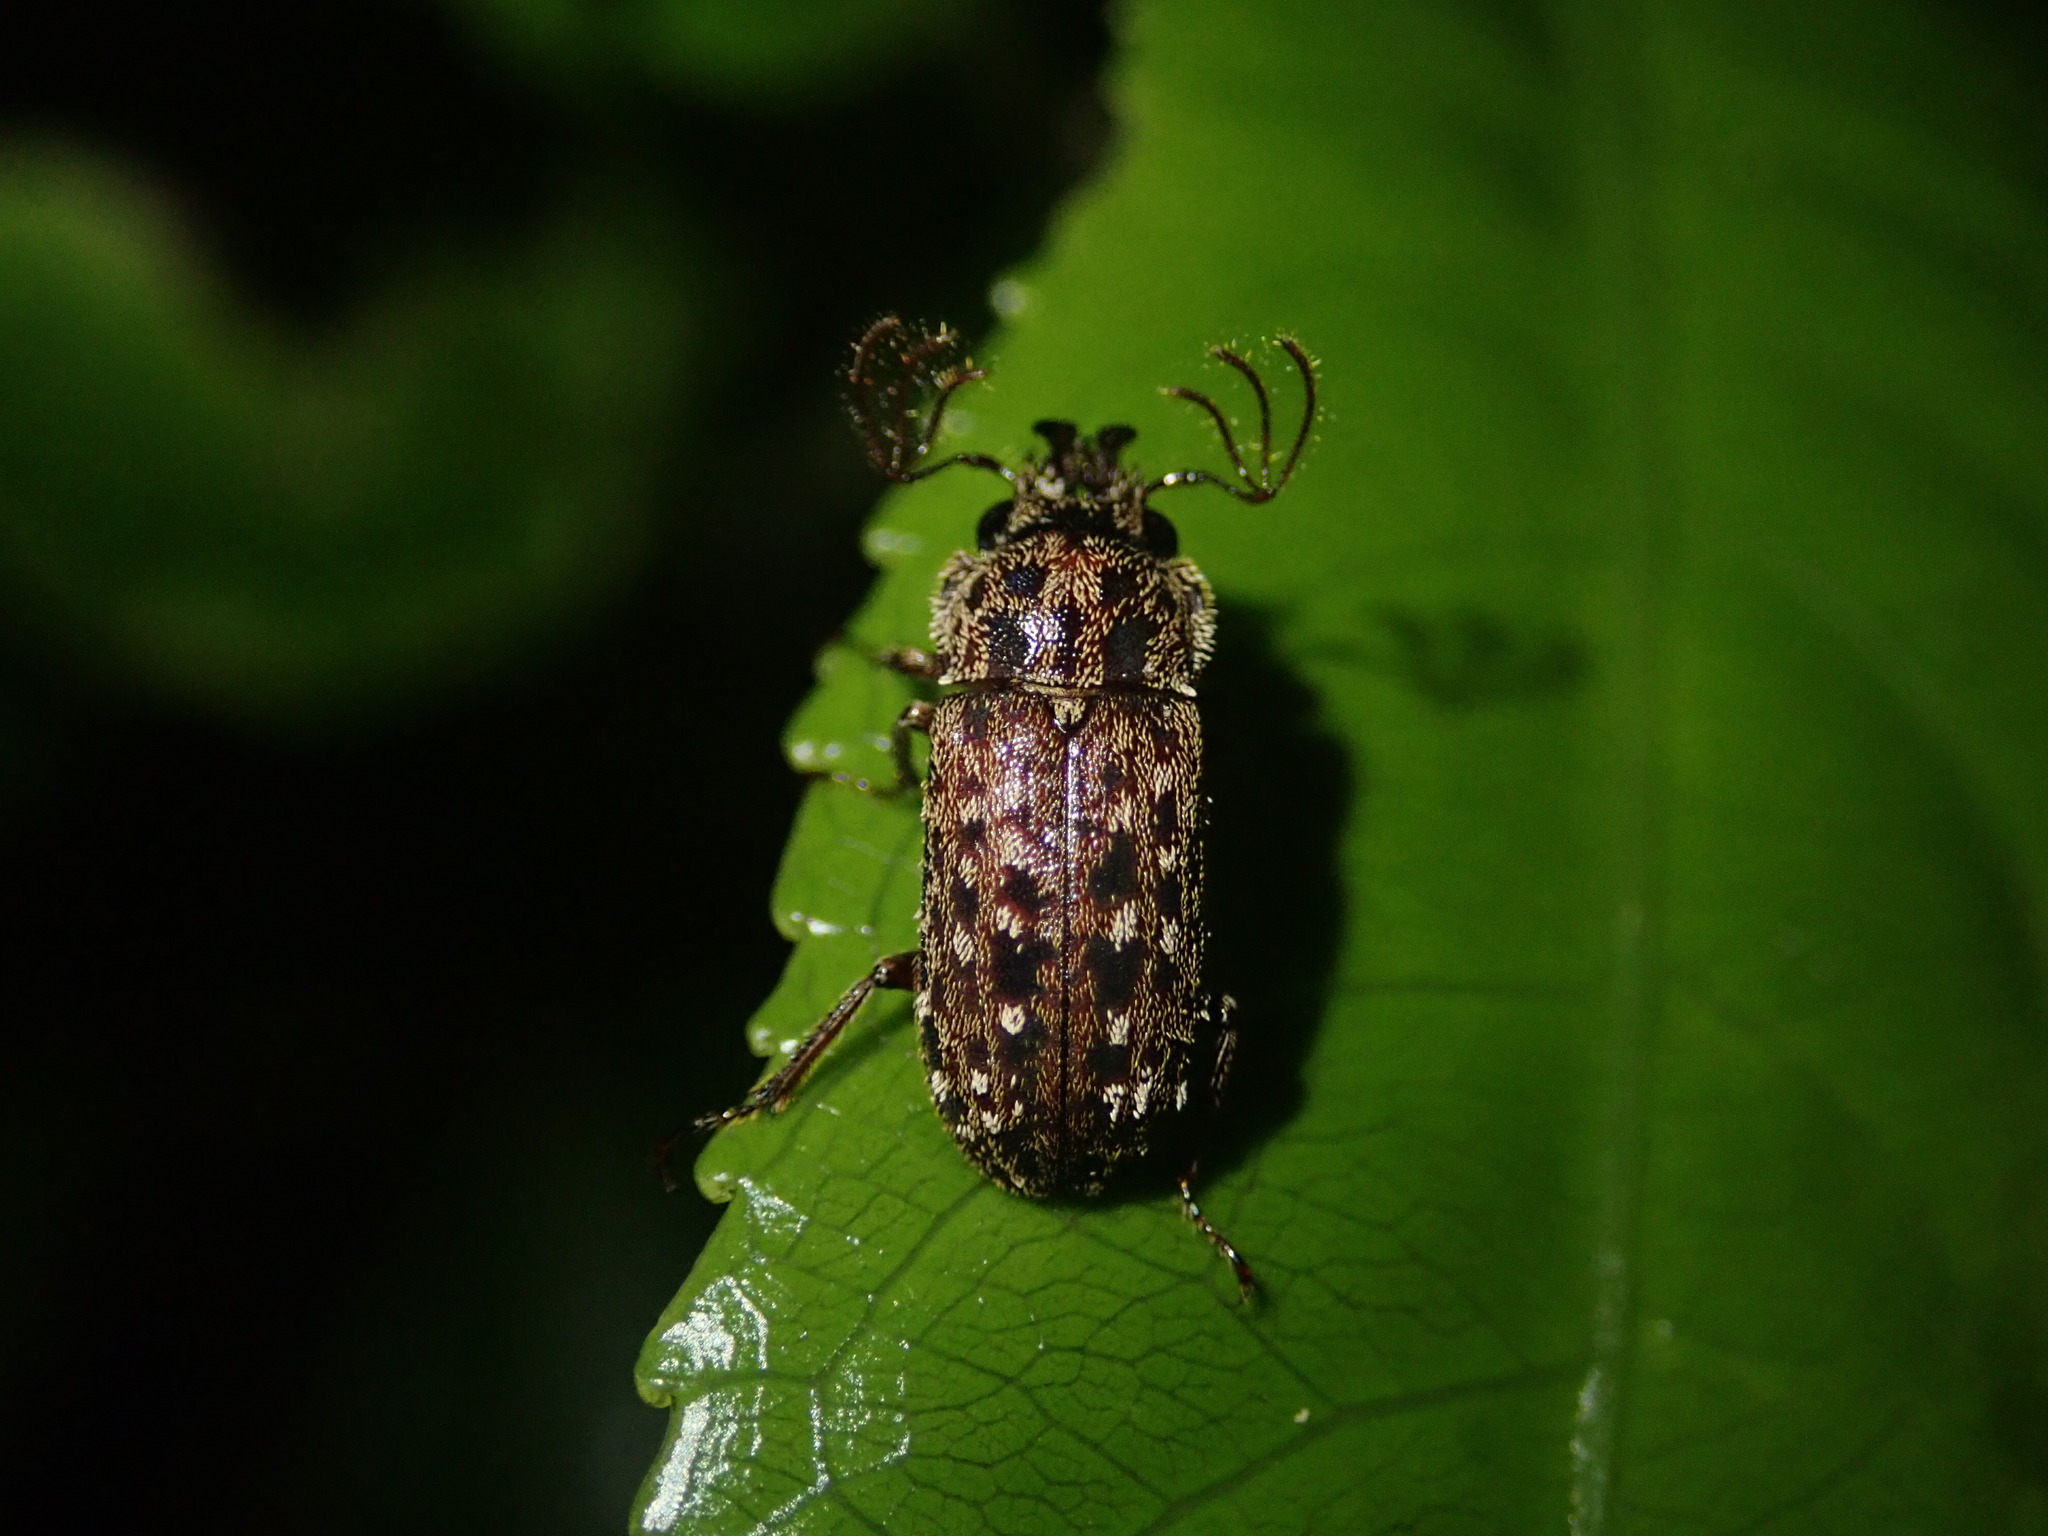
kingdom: Animalia
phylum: Arthropoda
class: Insecta
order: Coleoptera
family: Lucanidae
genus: Mitophyllus
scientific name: Mitophyllus irroratus
